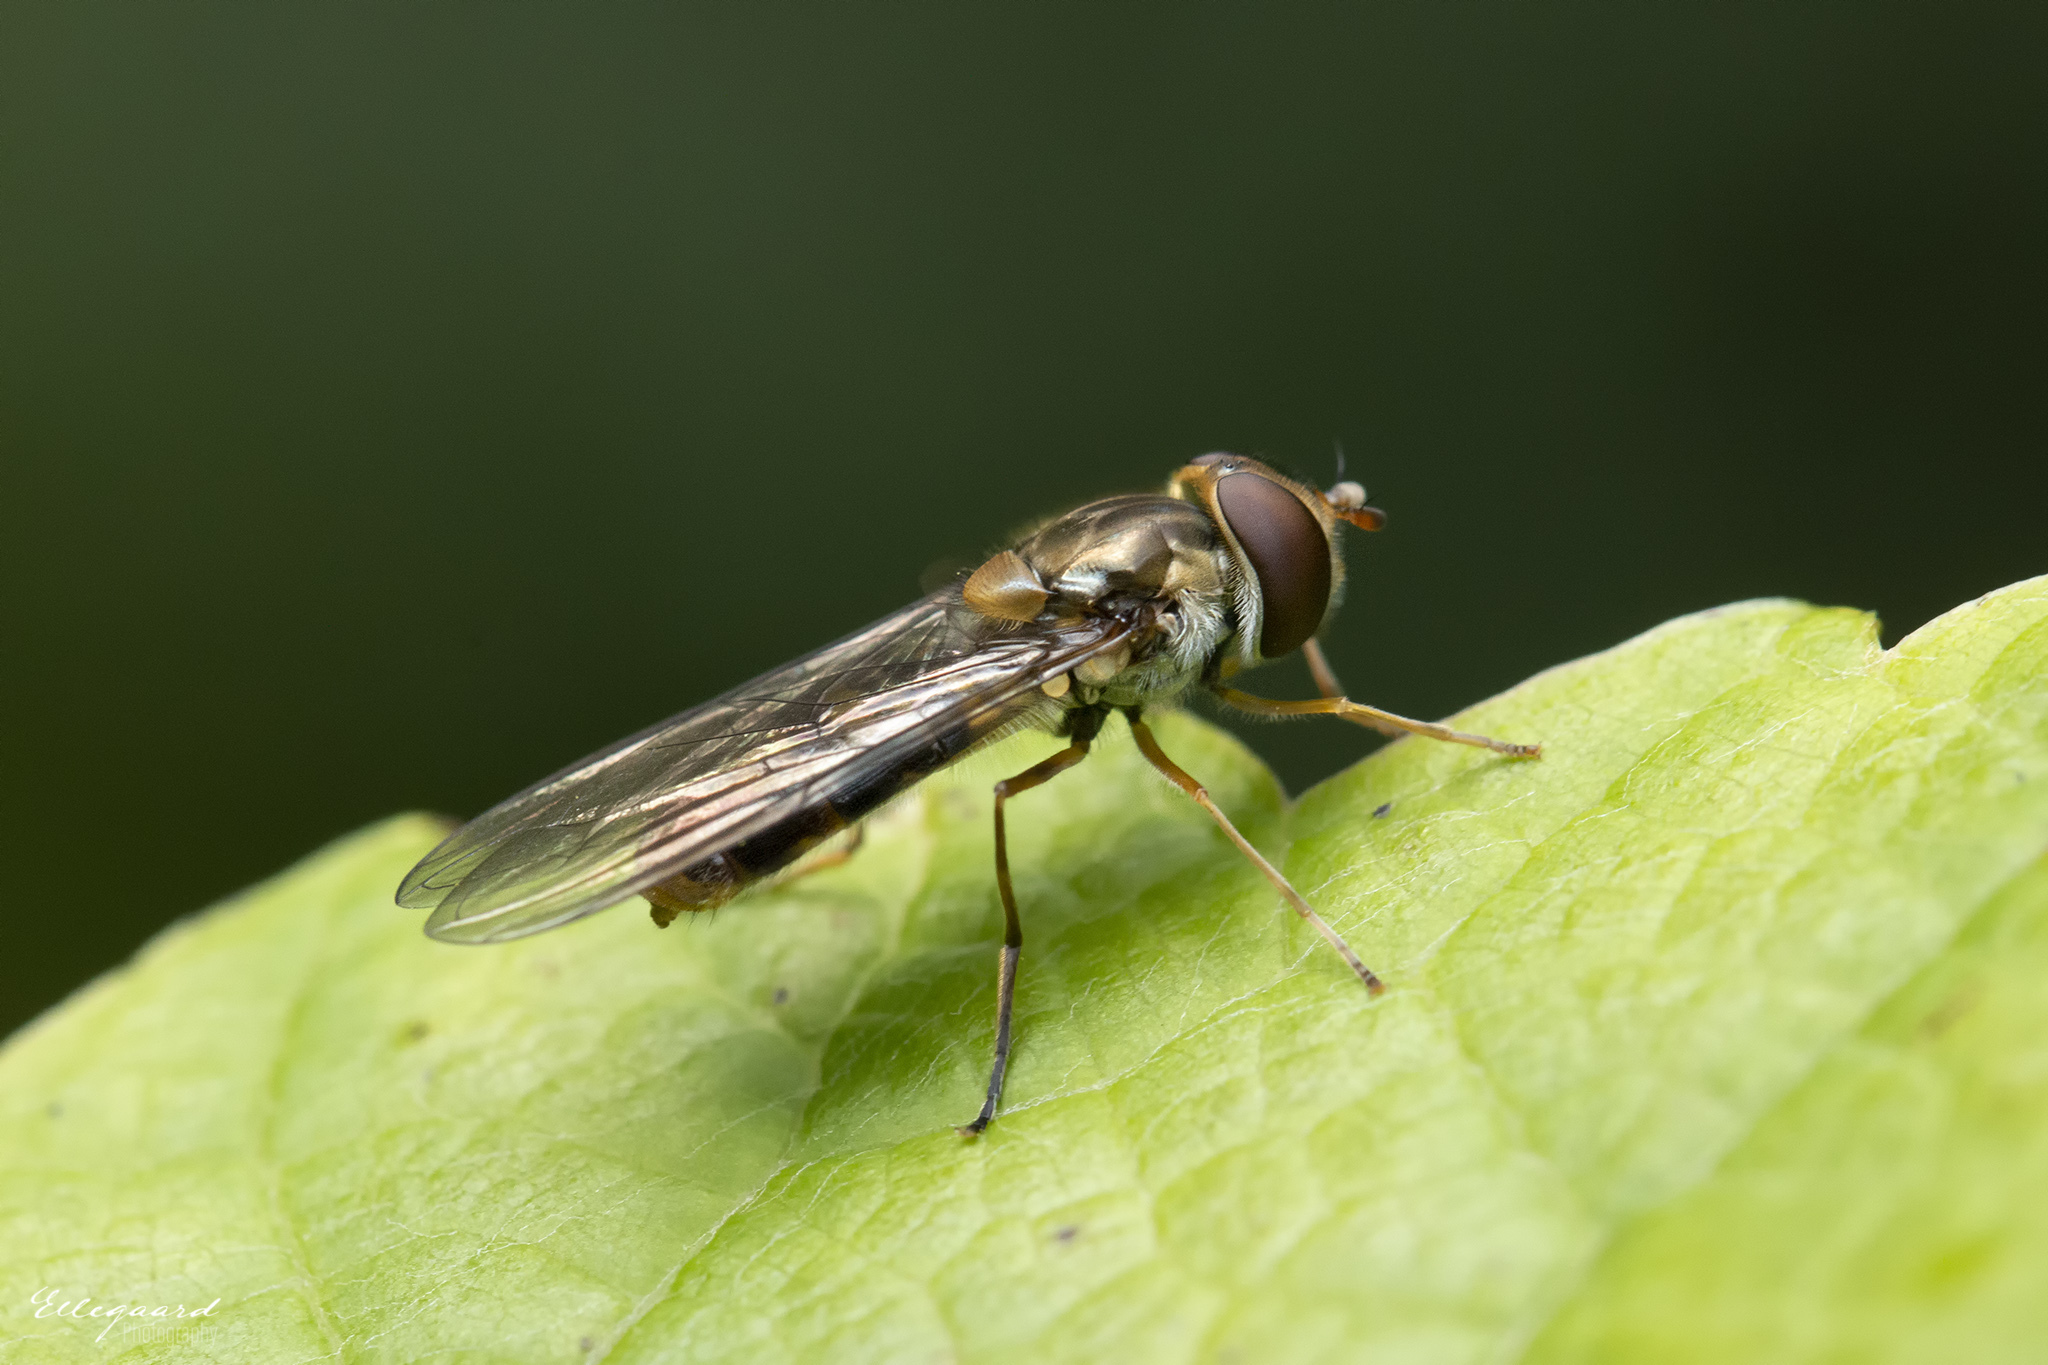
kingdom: Animalia
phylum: Arthropoda
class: Insecta
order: Diptera
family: Syrphidae
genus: Episyrphus
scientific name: Episyrphus balteatus
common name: Marmalade hoverfly
